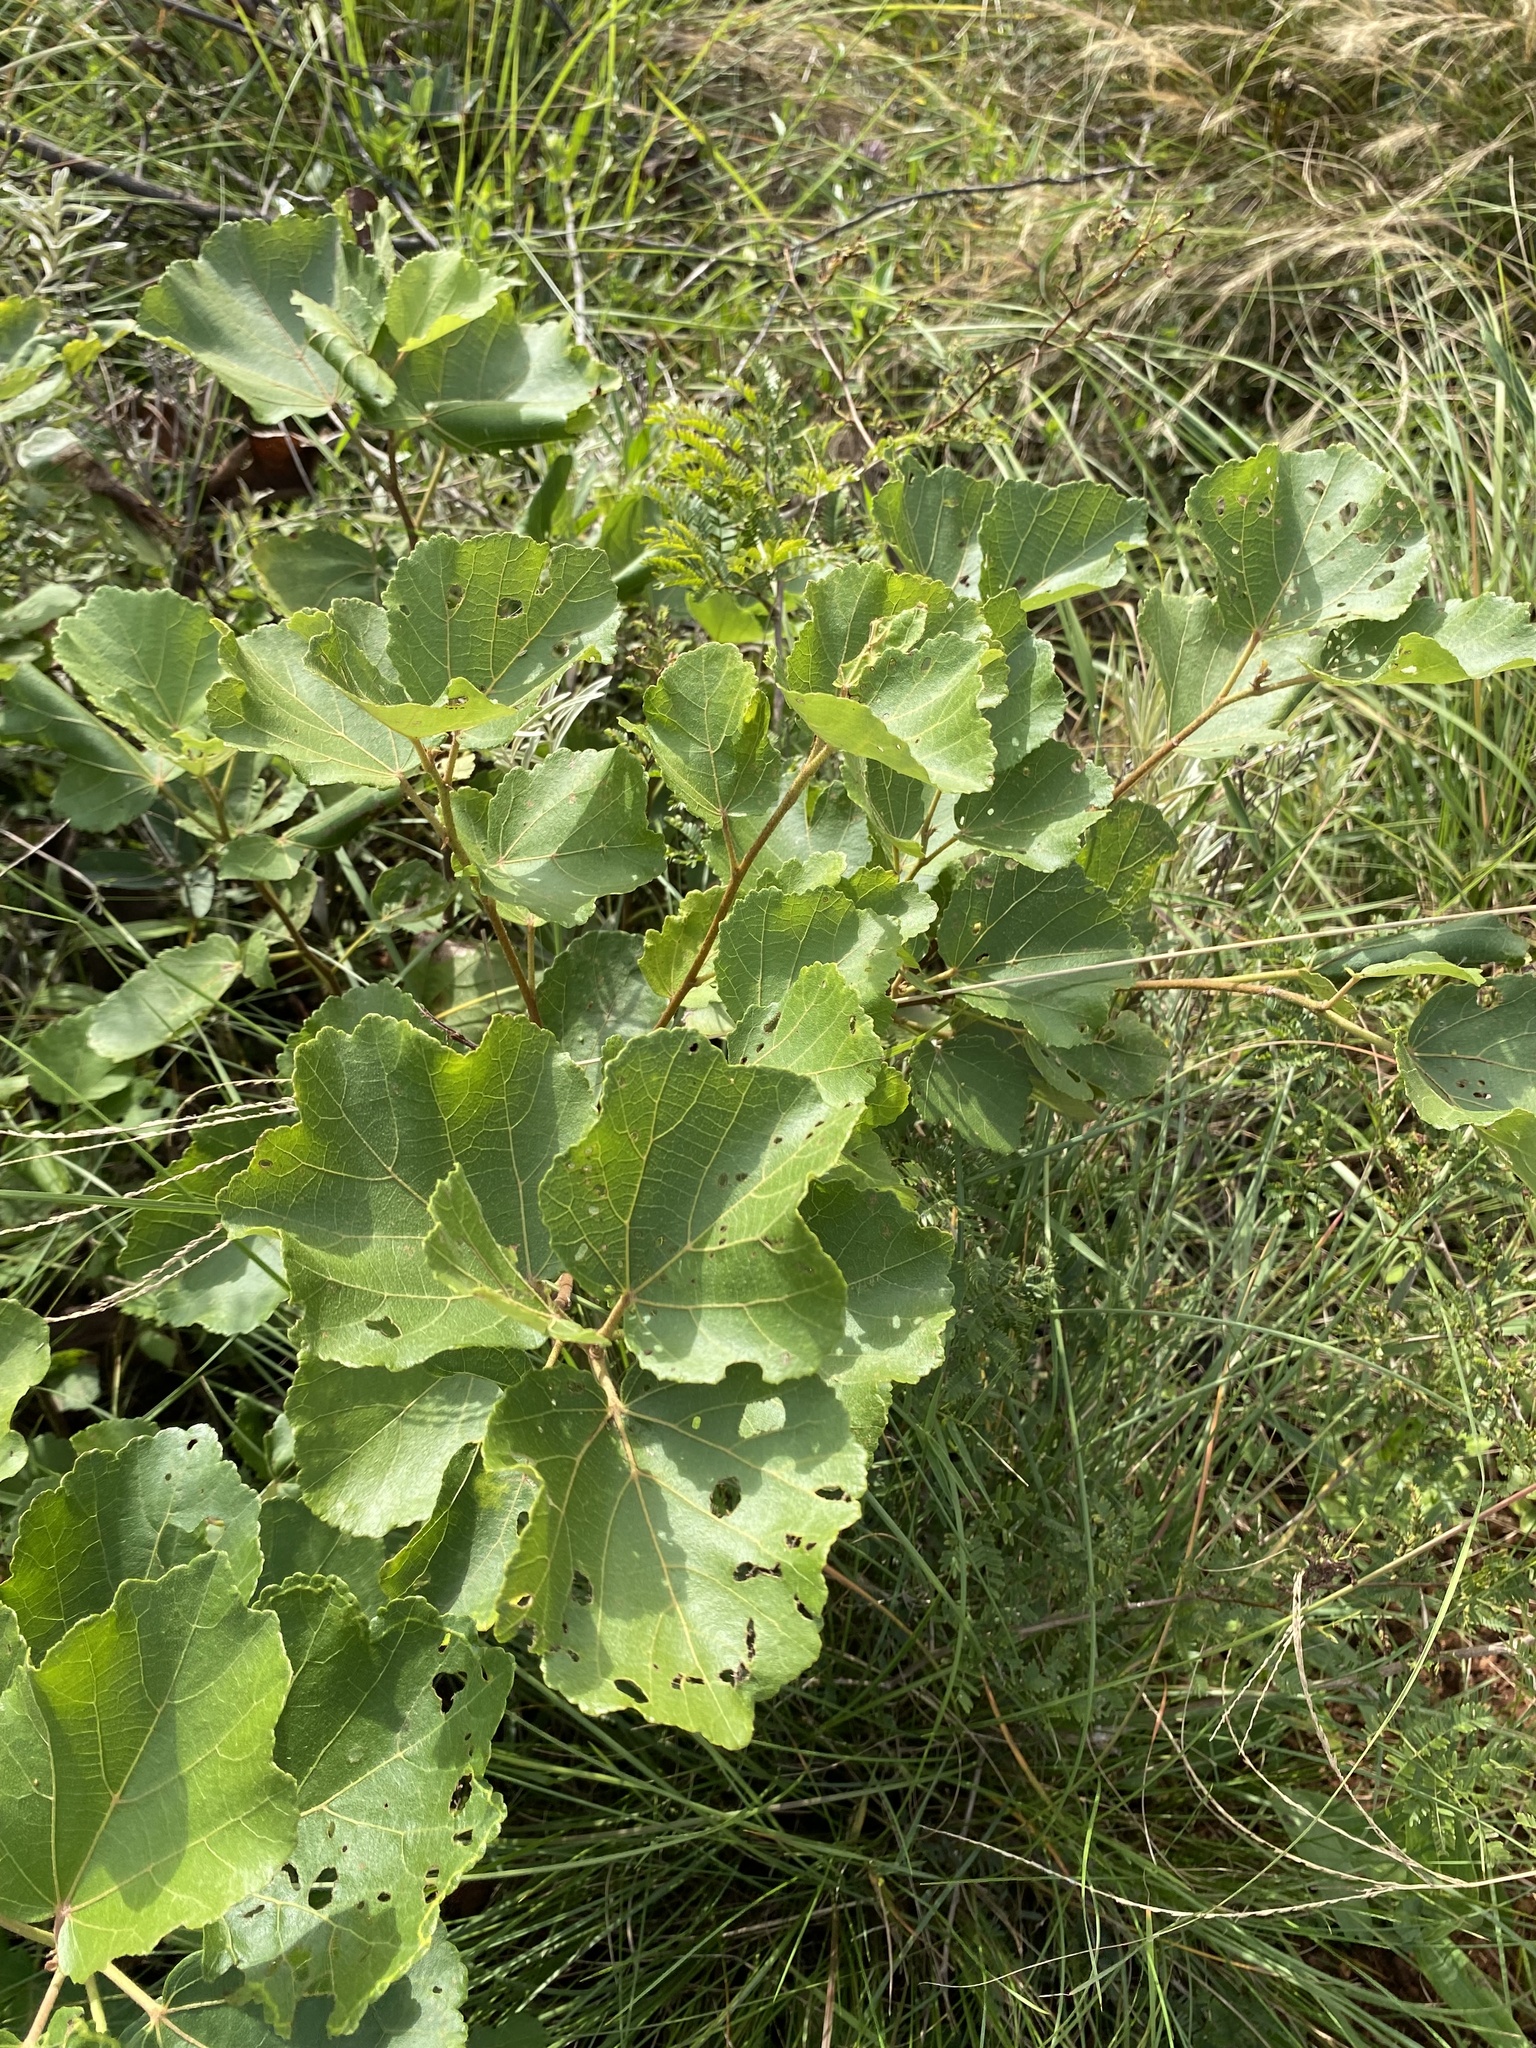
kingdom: Plantae
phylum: Tracheophyta
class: Magnoliopsida
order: Malvales
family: Malvaceae
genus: Dombeya
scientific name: Dombeya rotundifolia
